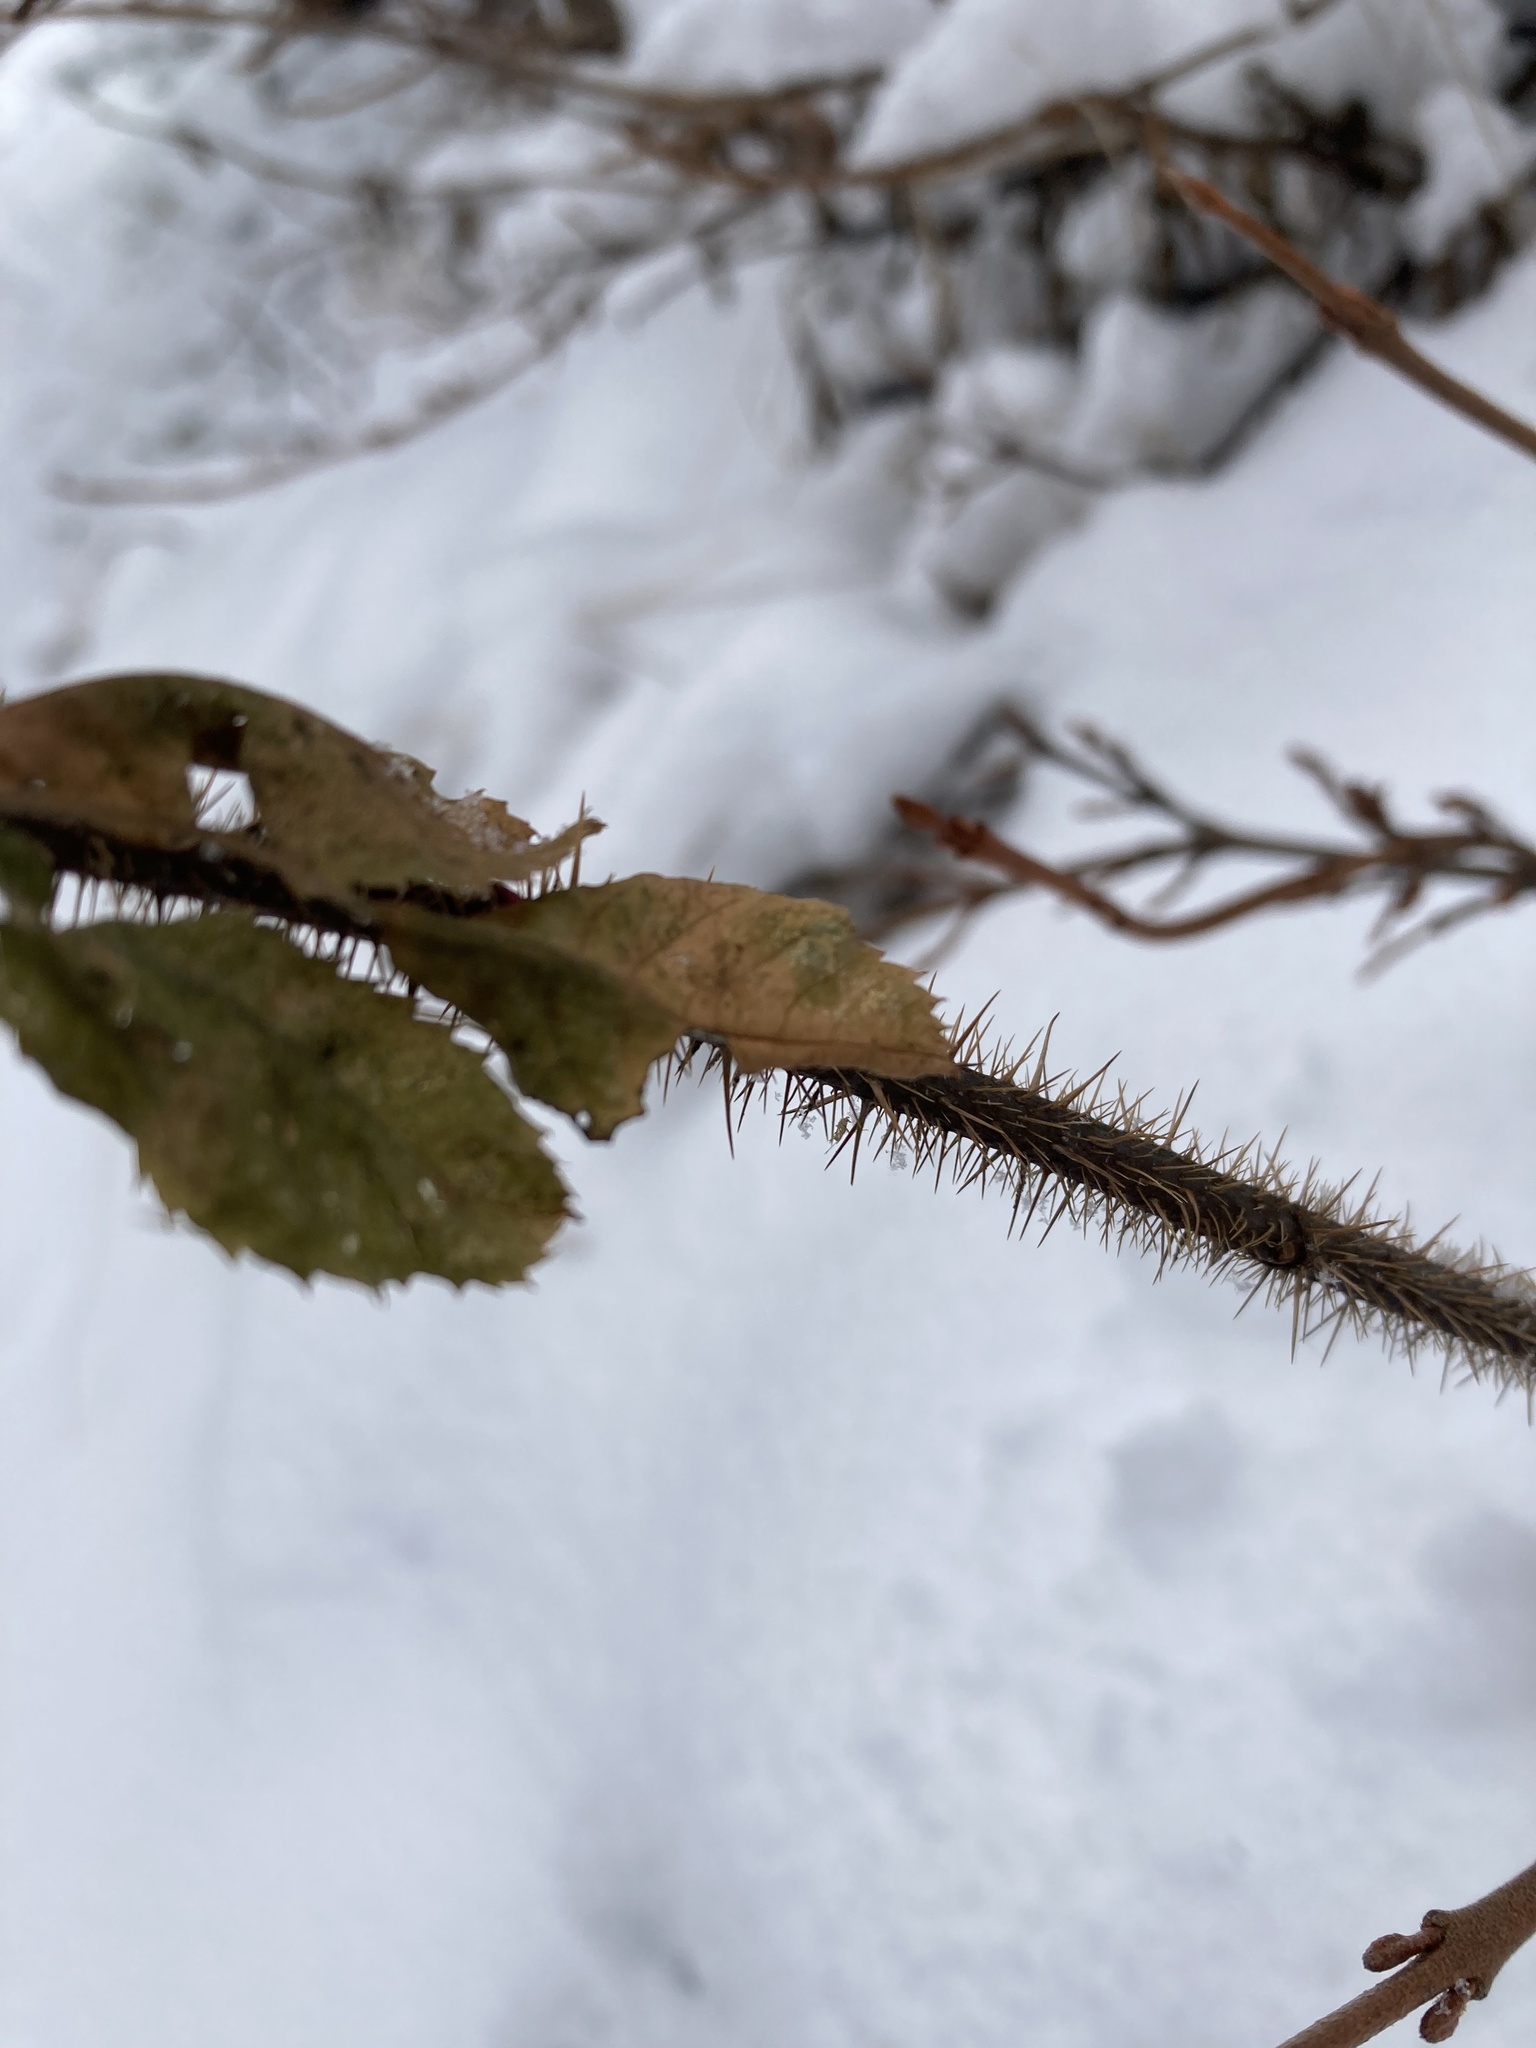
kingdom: Plantae
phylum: Tracheophyta
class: Magnoliopsida
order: Rosales
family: Rosaceae
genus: Rosa
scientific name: Rosa acicularis
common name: Prickly rose
